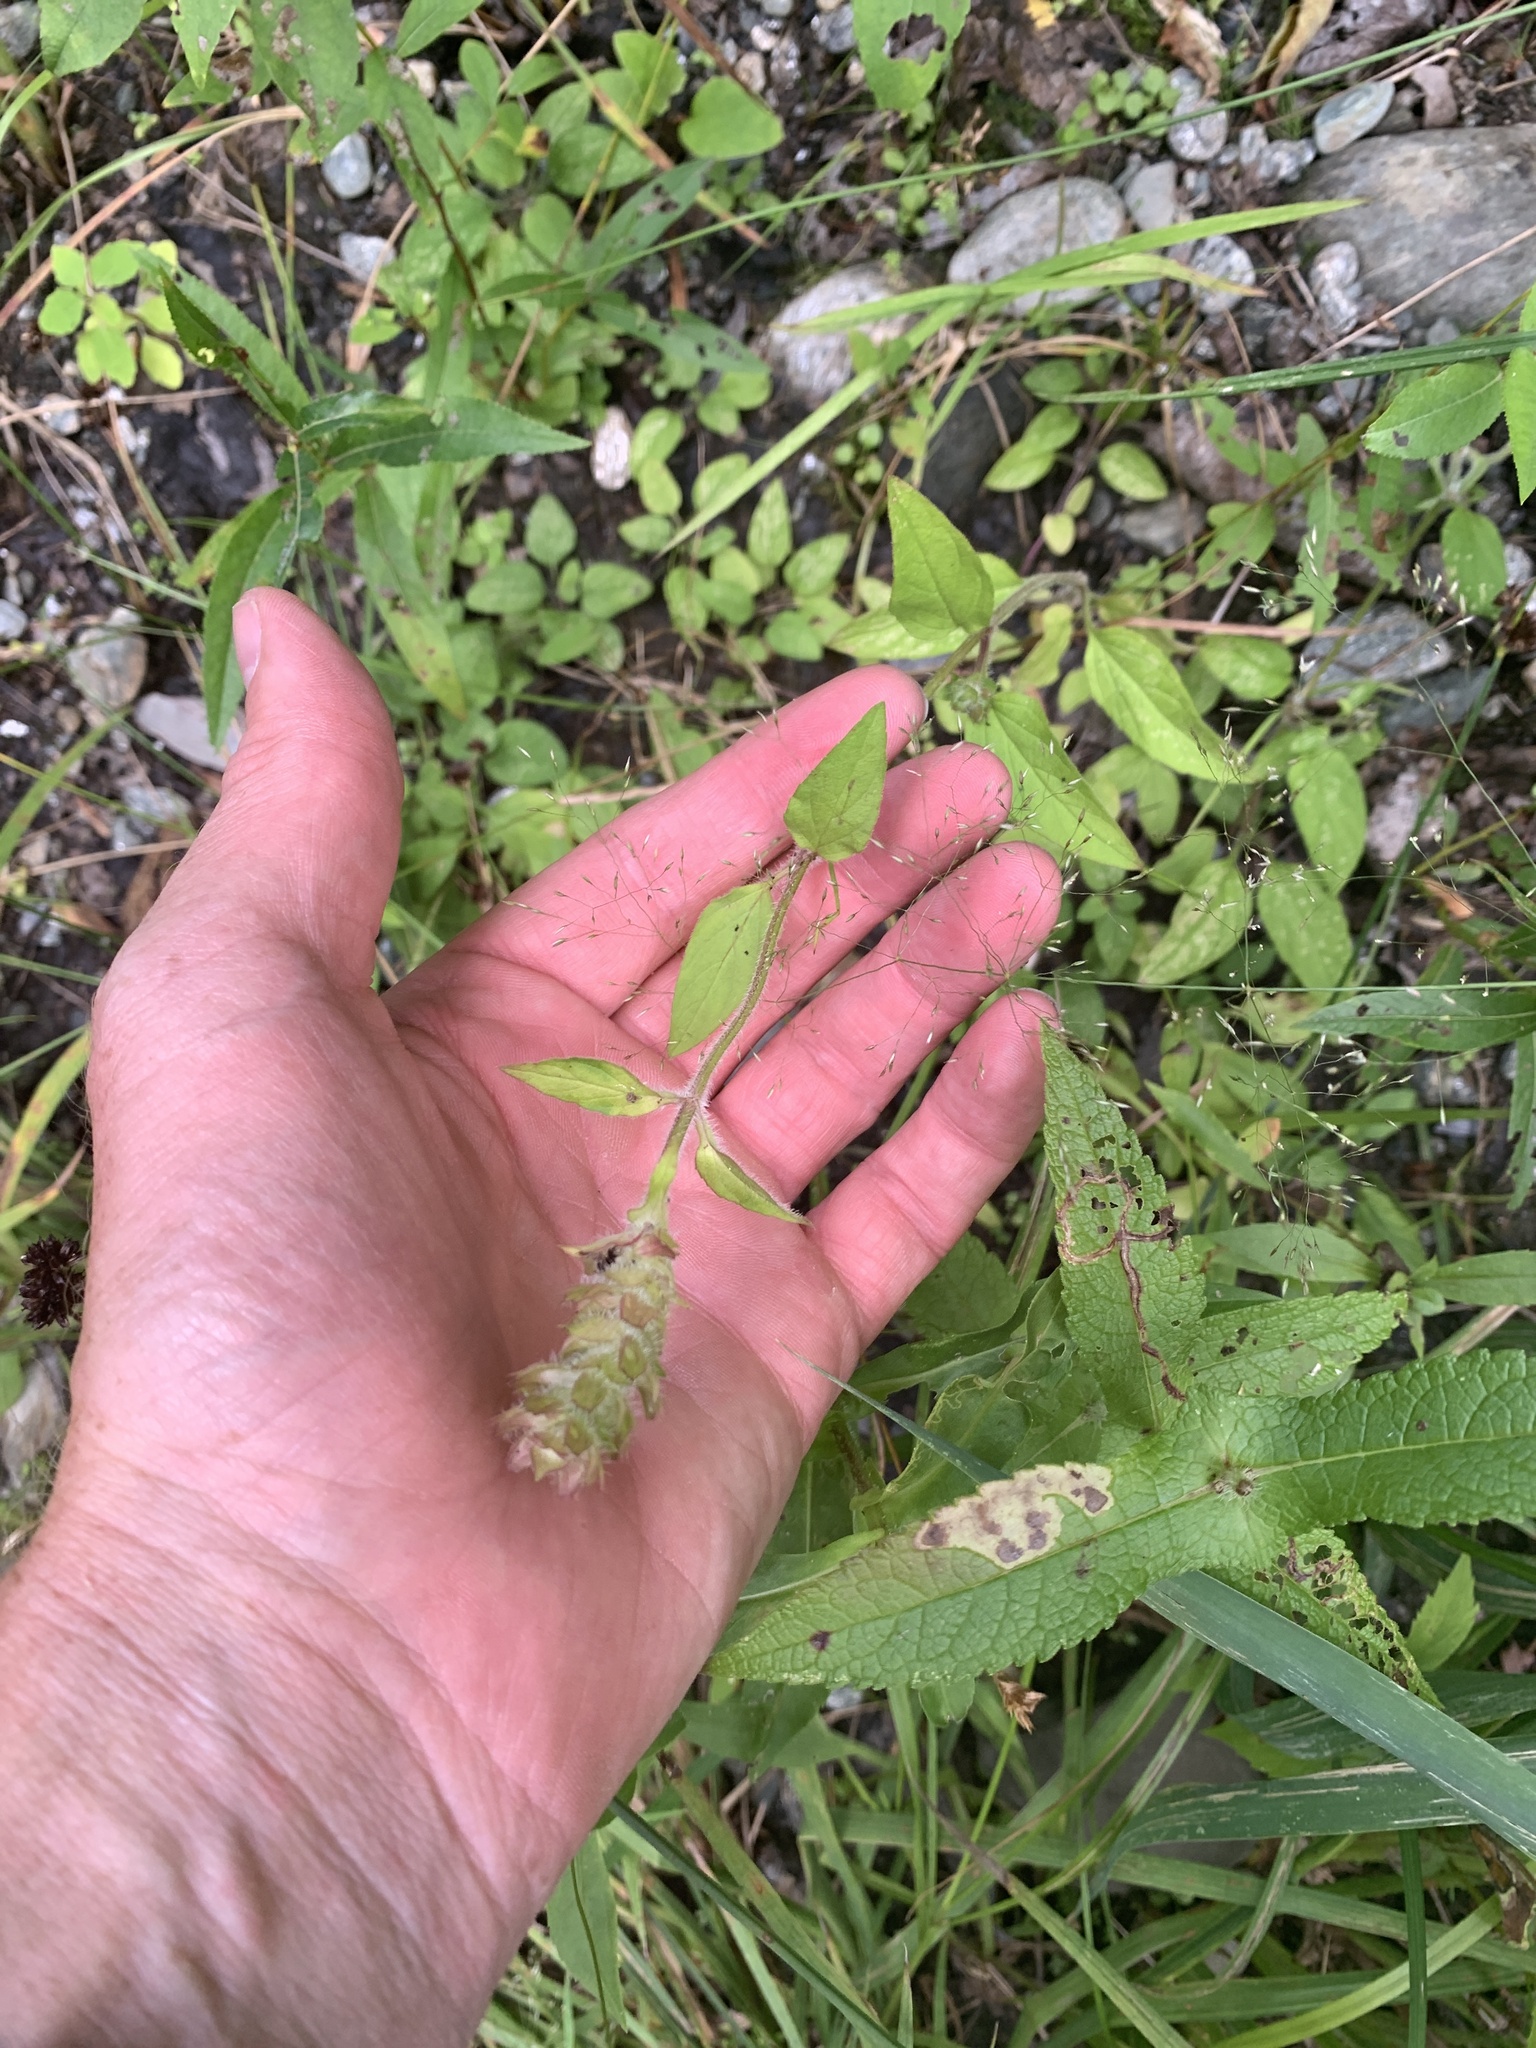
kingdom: Plantae
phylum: Tracheophyta
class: Magnoliopsida
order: Lamiales
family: Lamiaceae
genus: Prunella
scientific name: Prunella vulgaris
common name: Heal-all
